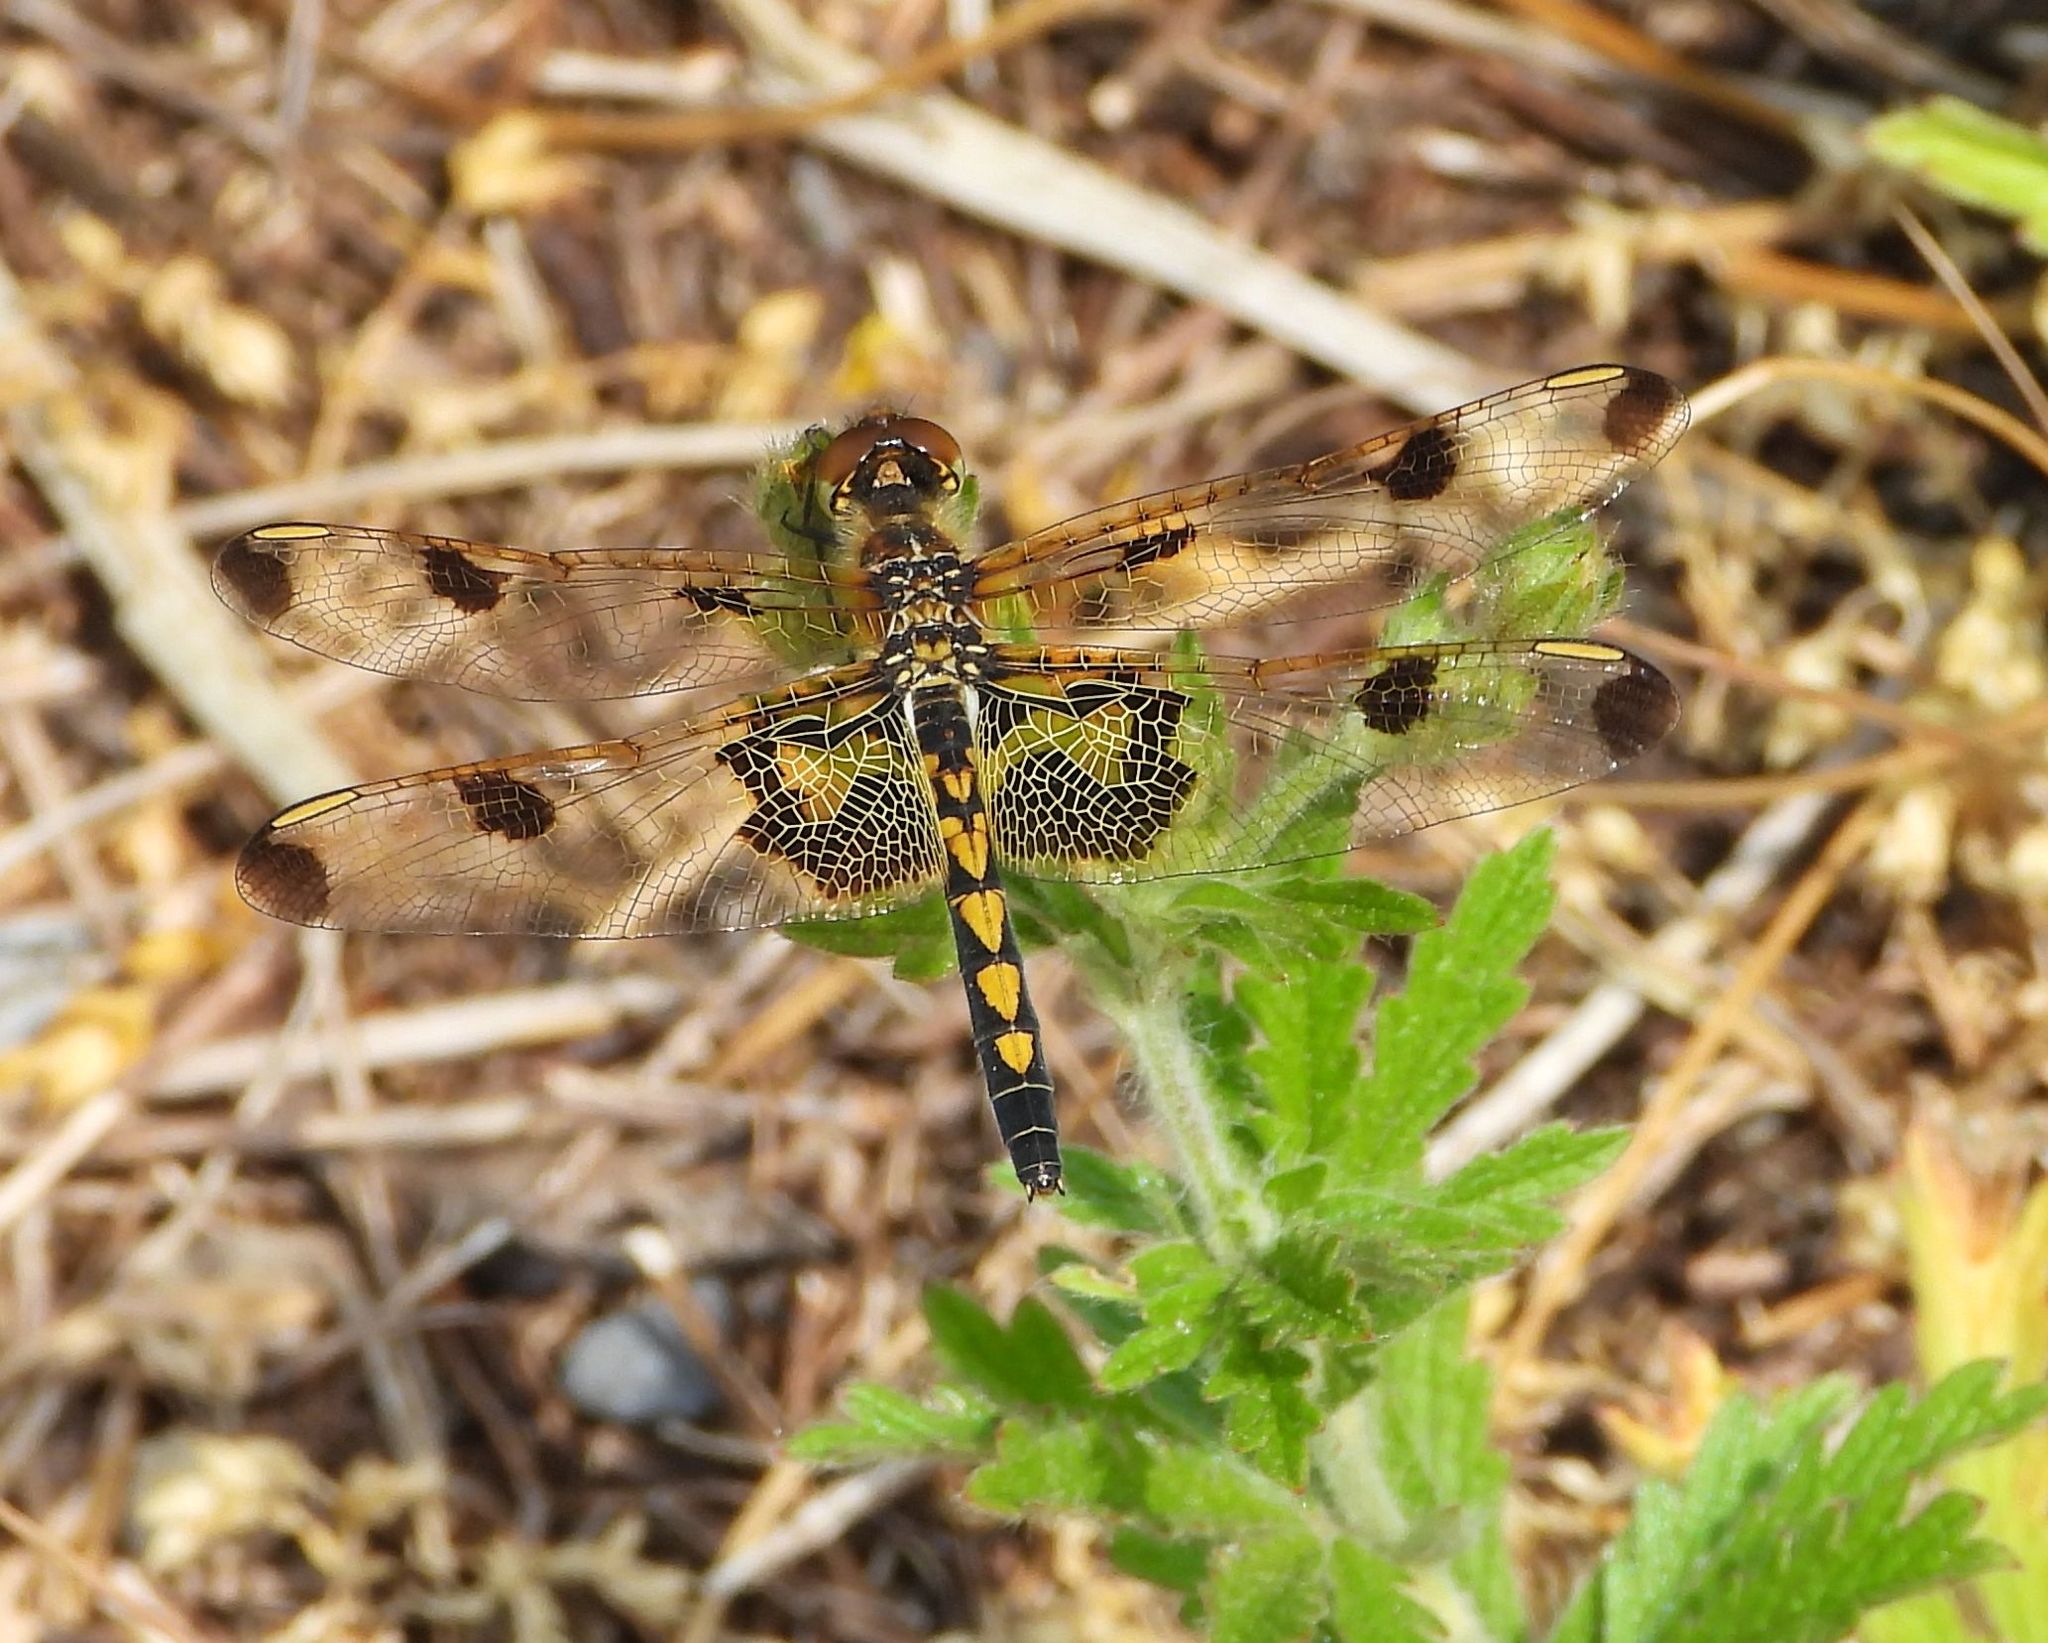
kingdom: Animalia
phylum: Arthropoda
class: Insecta
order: Odonata
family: Libellulidae
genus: Celithemis
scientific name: Celithemis elisa
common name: Calico pennant
